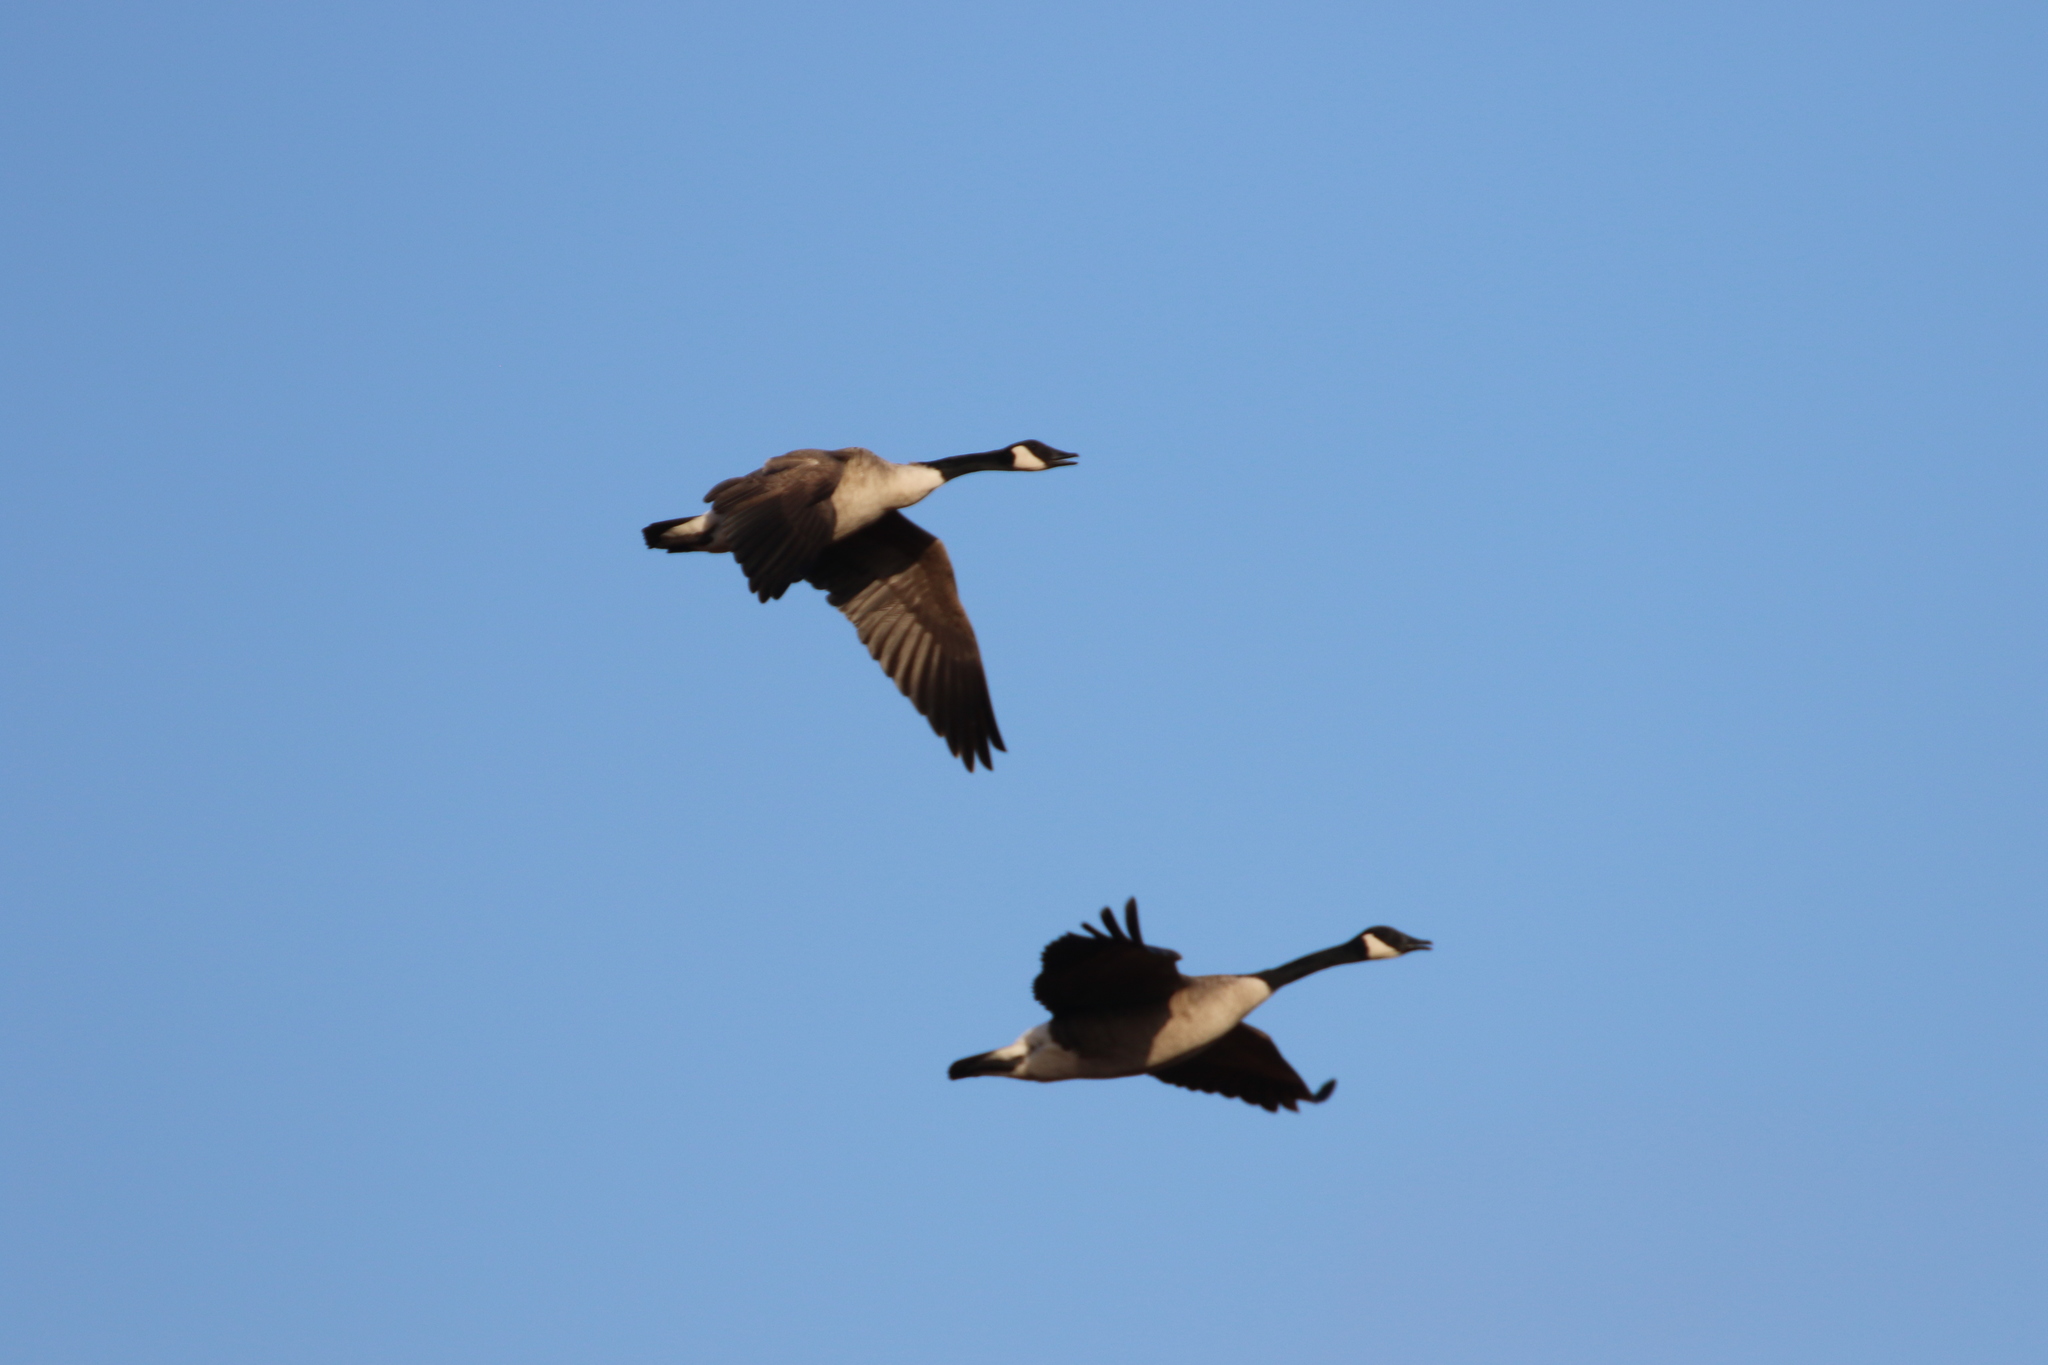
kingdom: Animalia
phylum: Chordata
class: Aves
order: Anseriformes
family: Anatidae
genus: Branta
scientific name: Branta canadensis
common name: Canada goose
